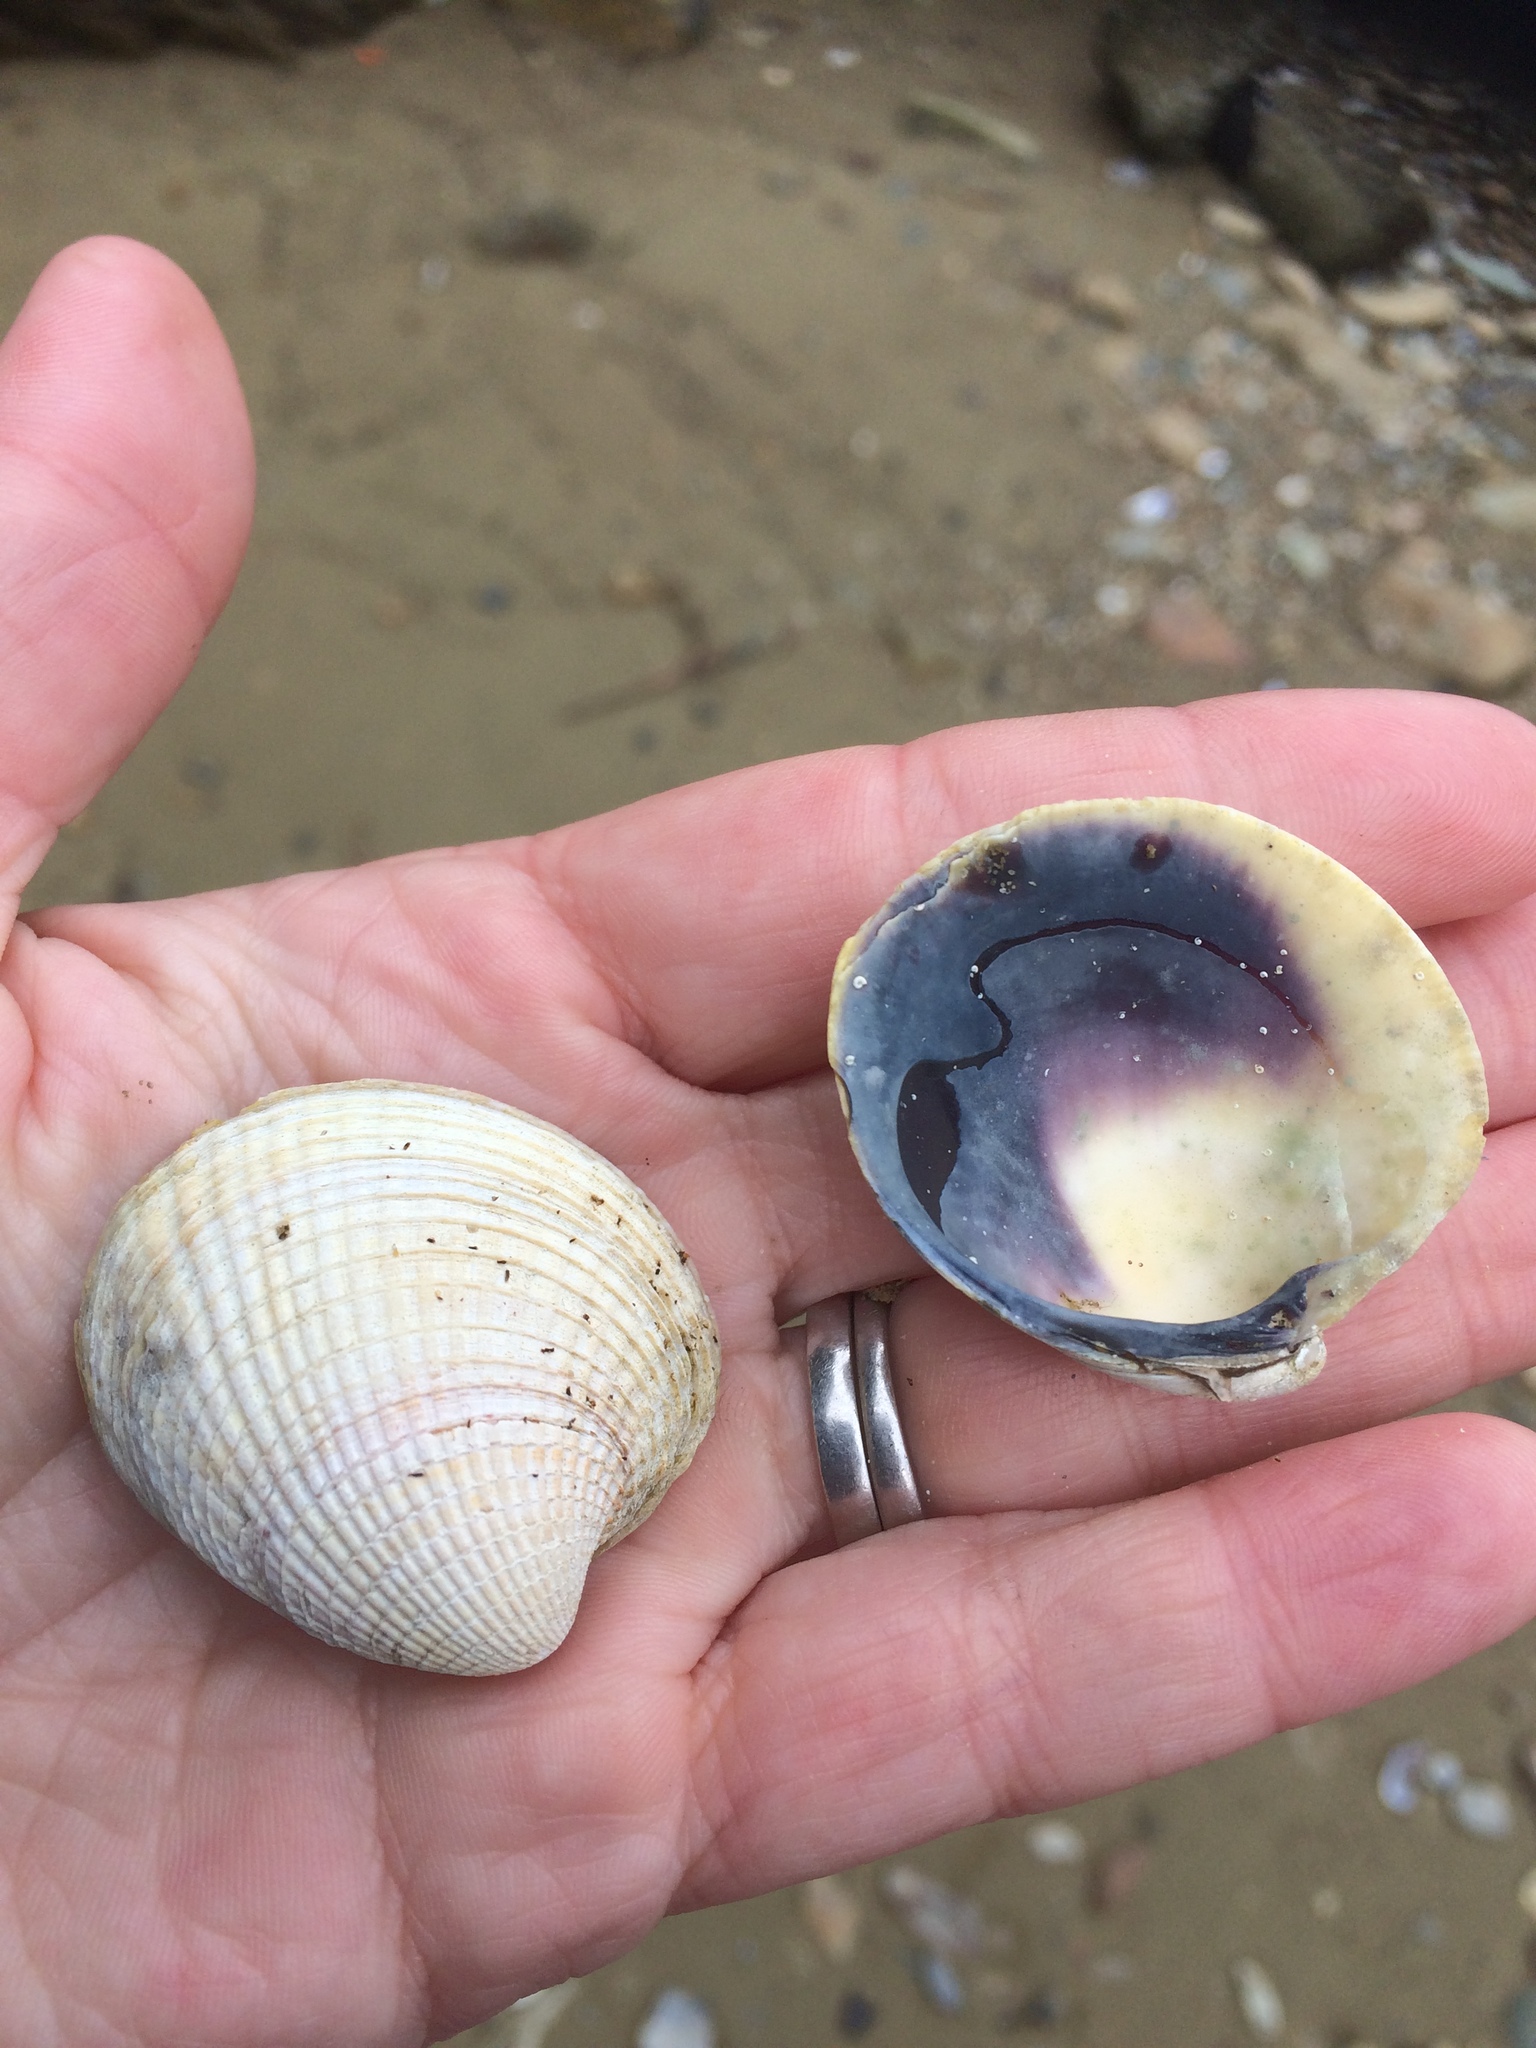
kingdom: Animalia
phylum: Mollusca
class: Bivalvia
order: Venerida
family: Veneridae
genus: Austrovenus
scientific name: Austrovenus stutchburyi
